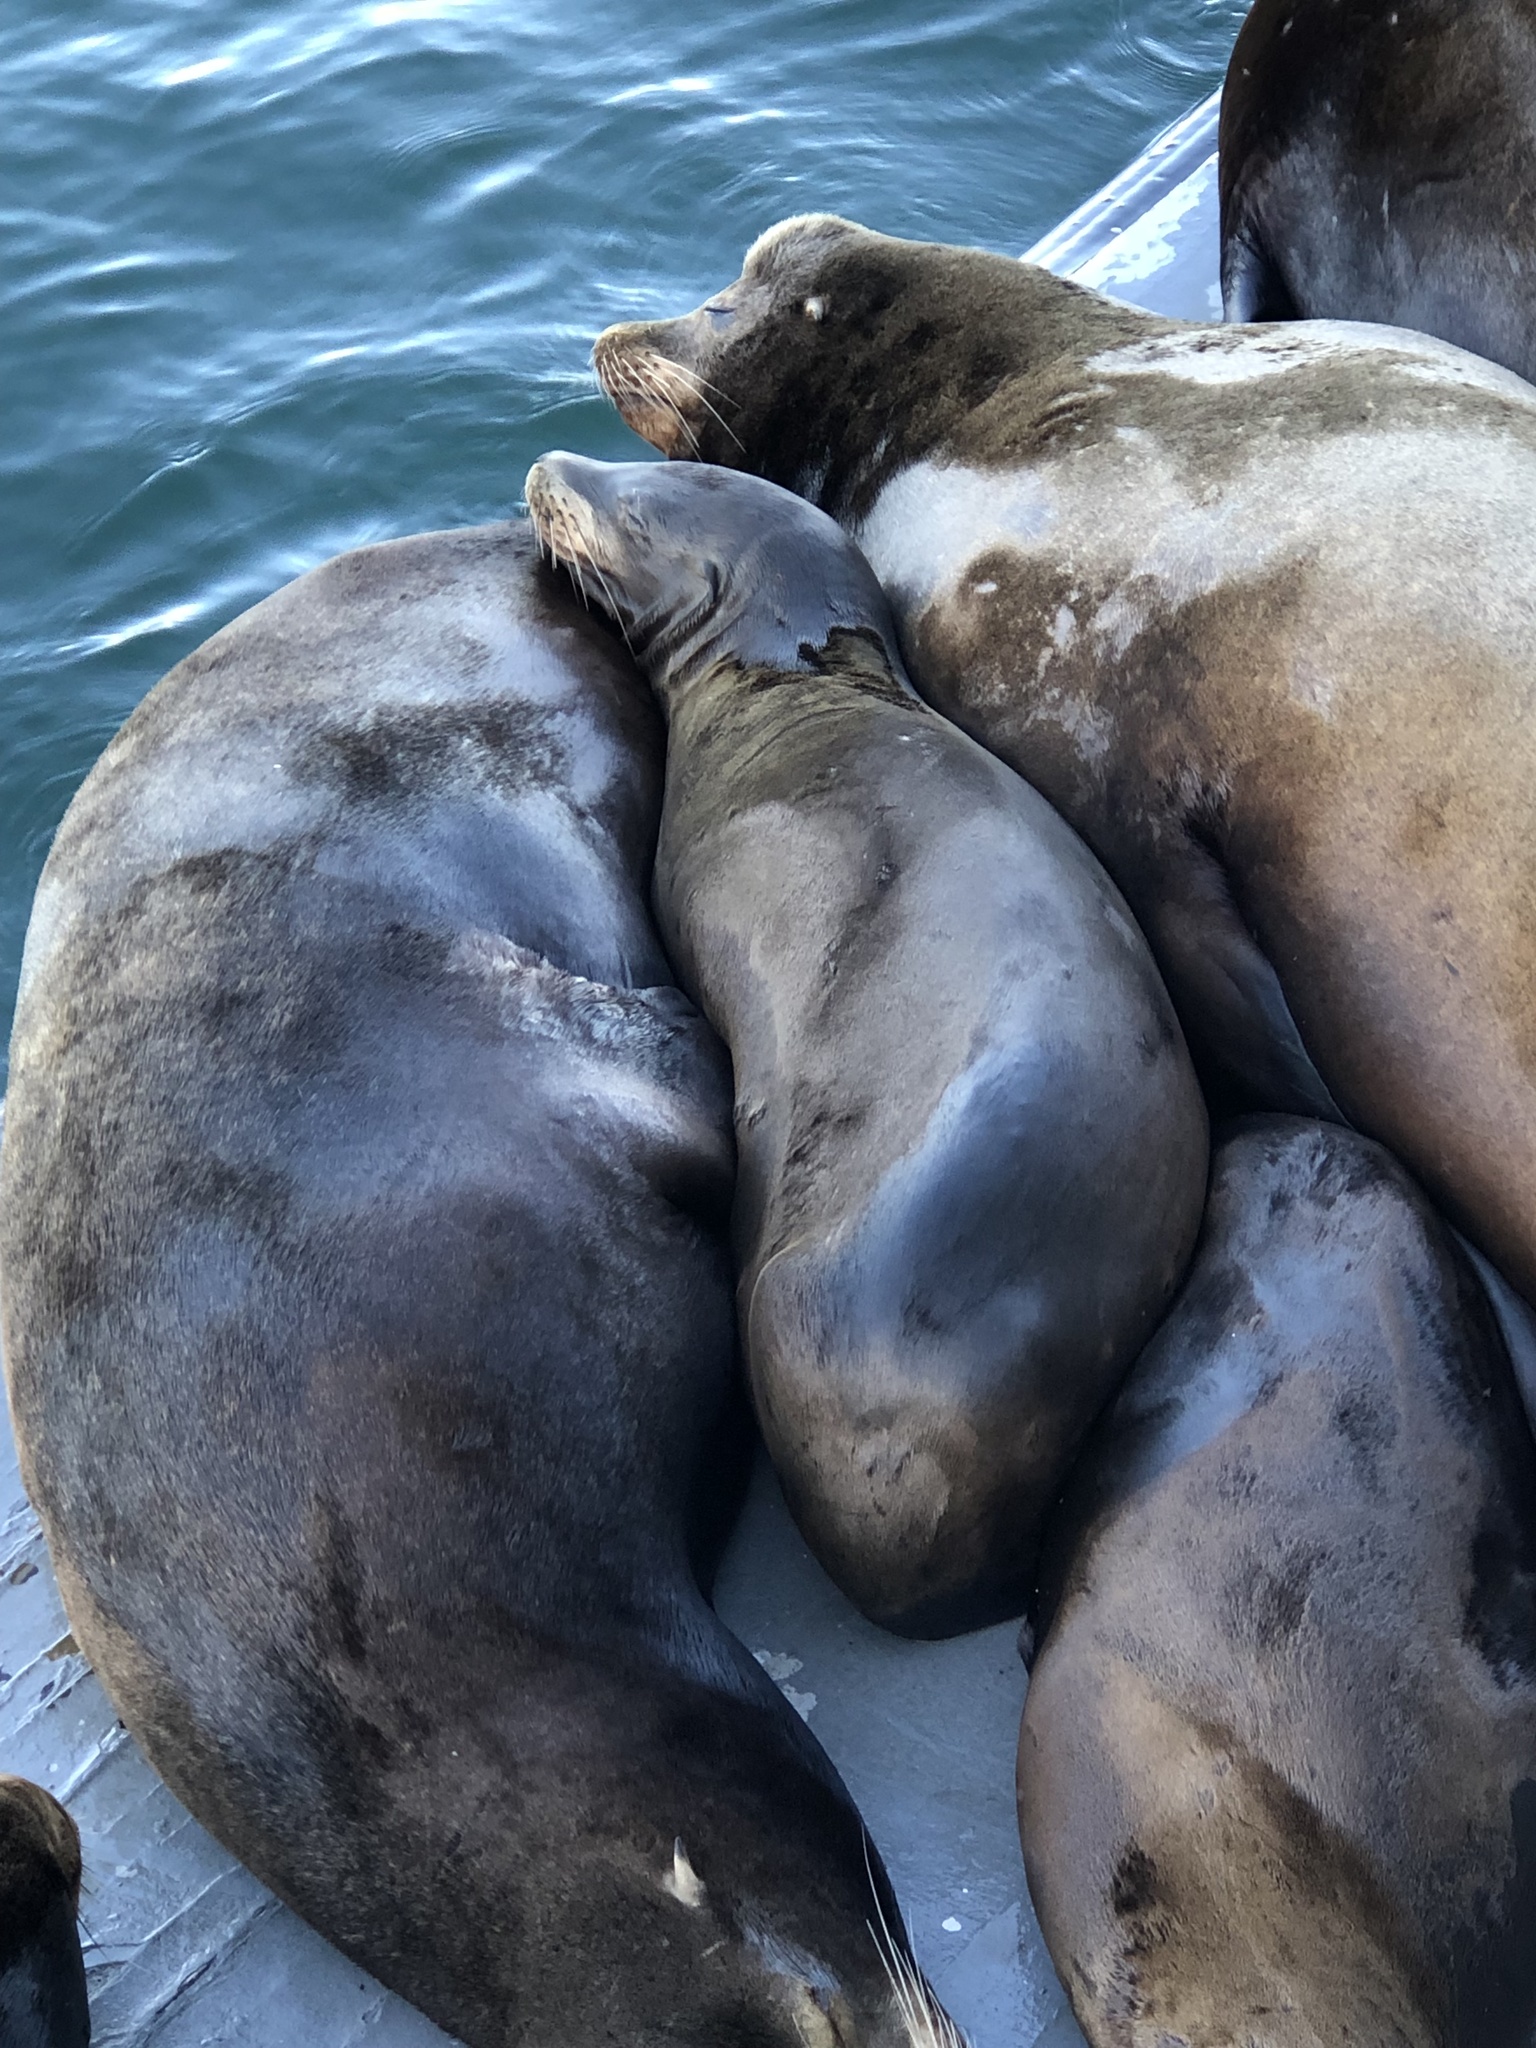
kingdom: Animalia
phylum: Chordata
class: Mammalia
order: Carnivora
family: Otariidae
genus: Zalophus
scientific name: Zalophus californianus
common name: California sea lion
